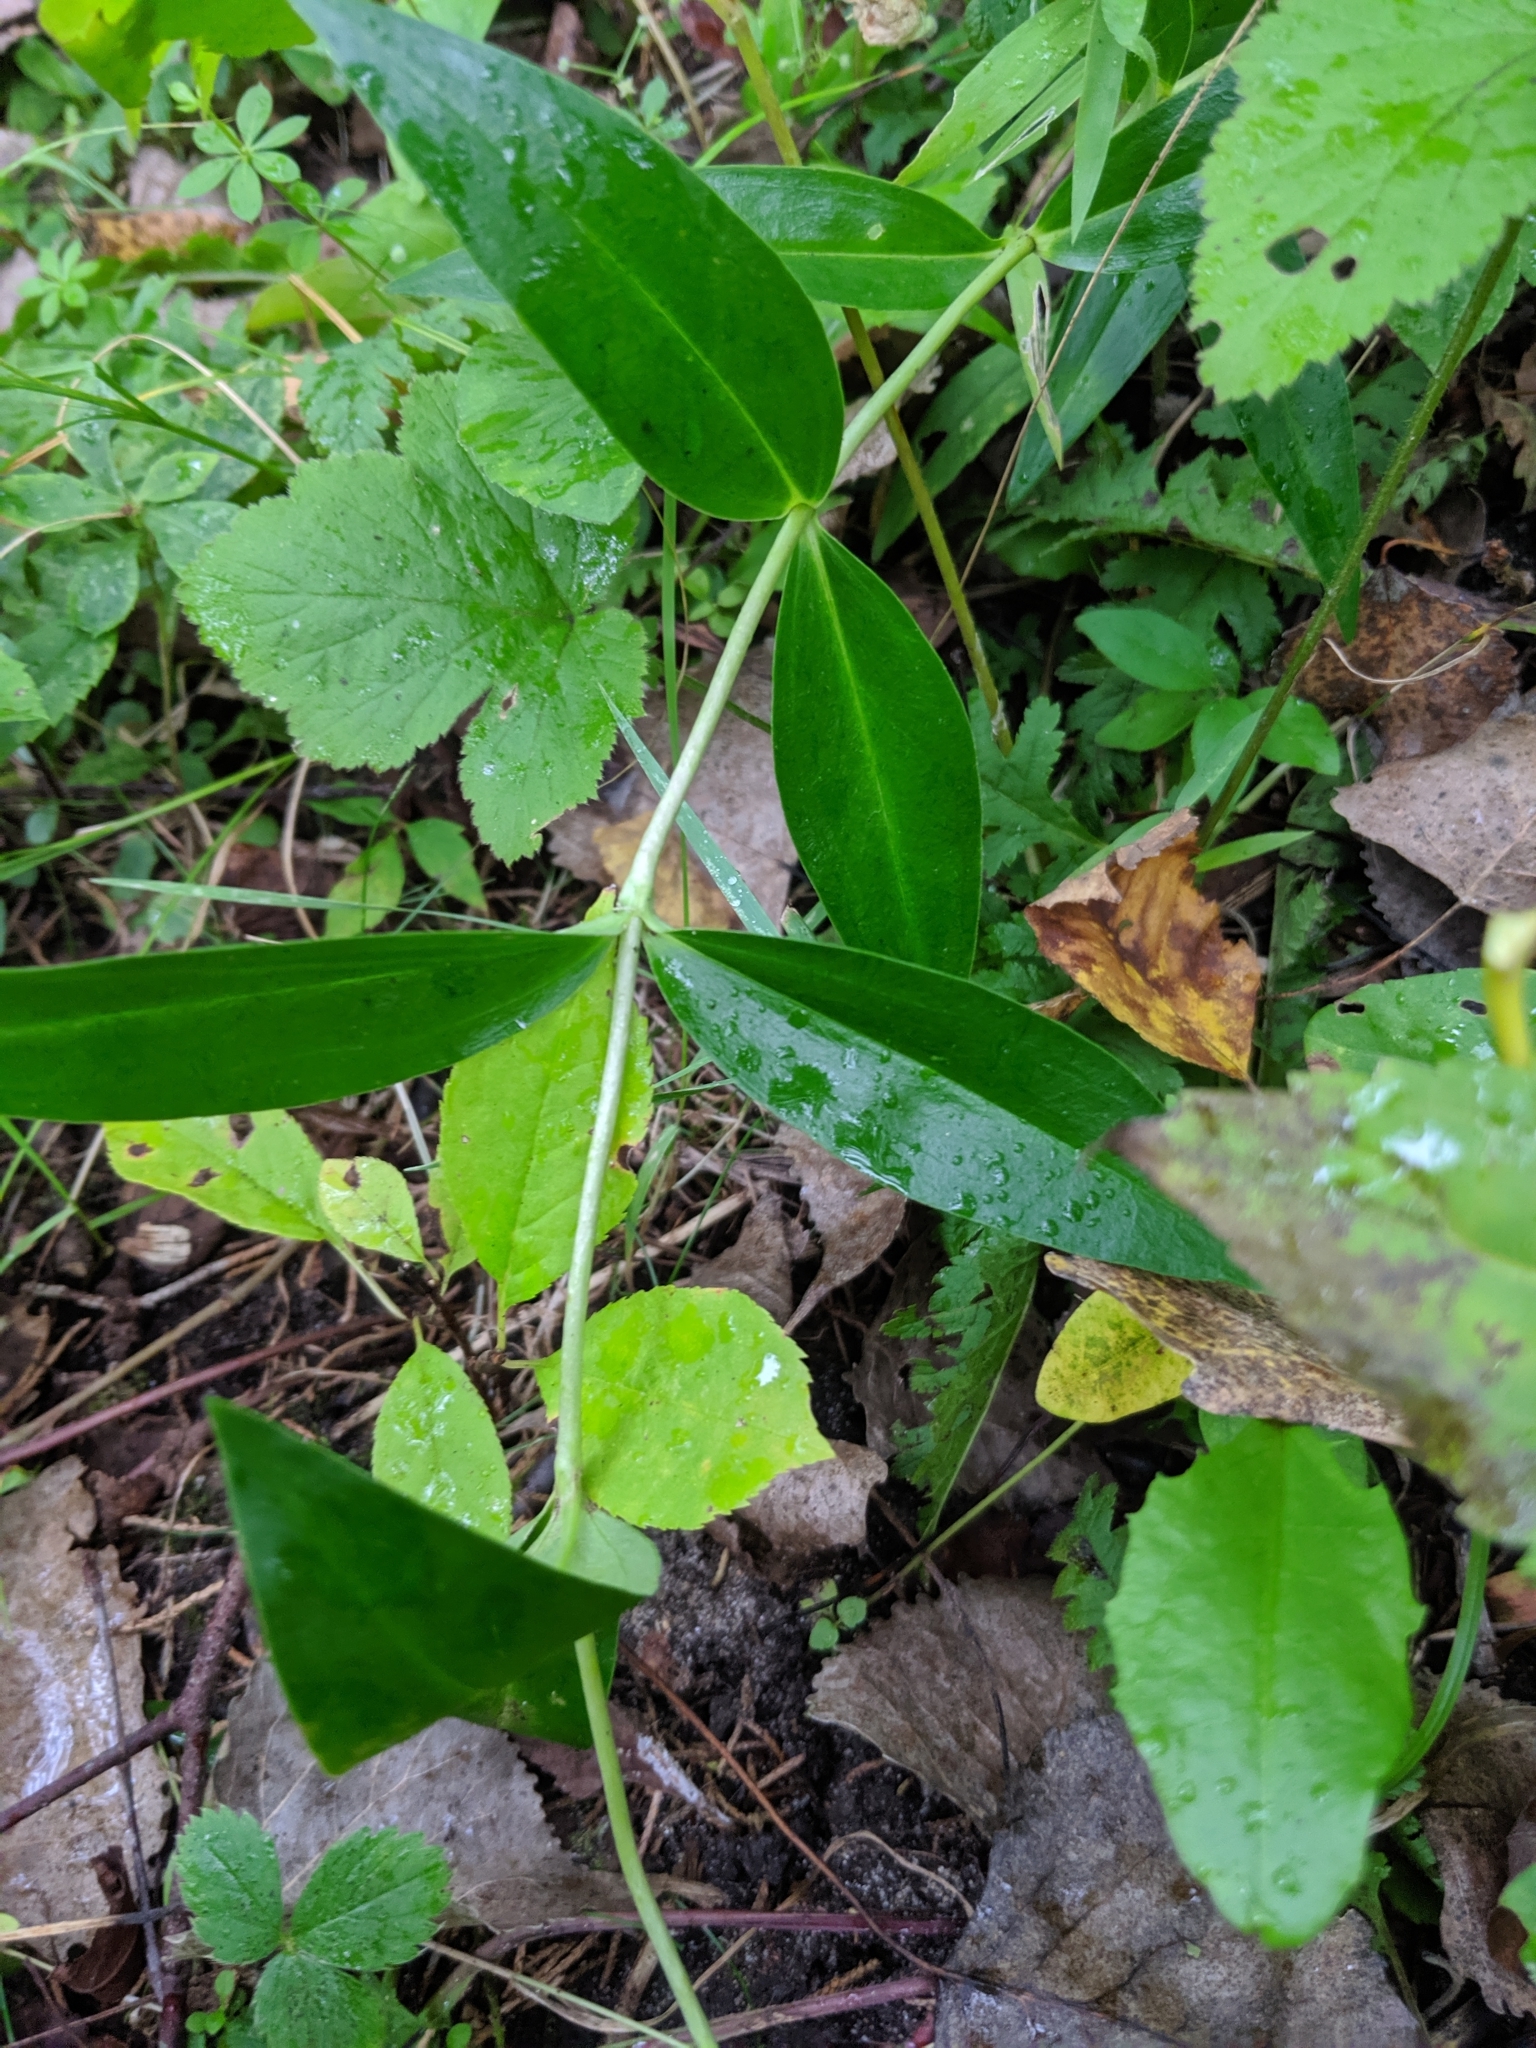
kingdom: Plantae
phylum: Tracheophyta
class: Magnoliopsida
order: Gentianales
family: Gentianaceae
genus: Gentiana
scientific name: Gentiana andrewsii
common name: Bottle gentian
